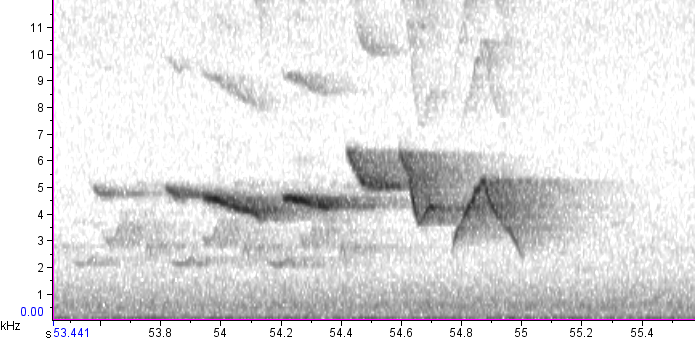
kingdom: Animalia
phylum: Chordata
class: Aves
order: Passeriformes
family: Parulidae
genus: Limnothlypis
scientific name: Limnothlypis swainsonii
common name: Swainson's warbler
